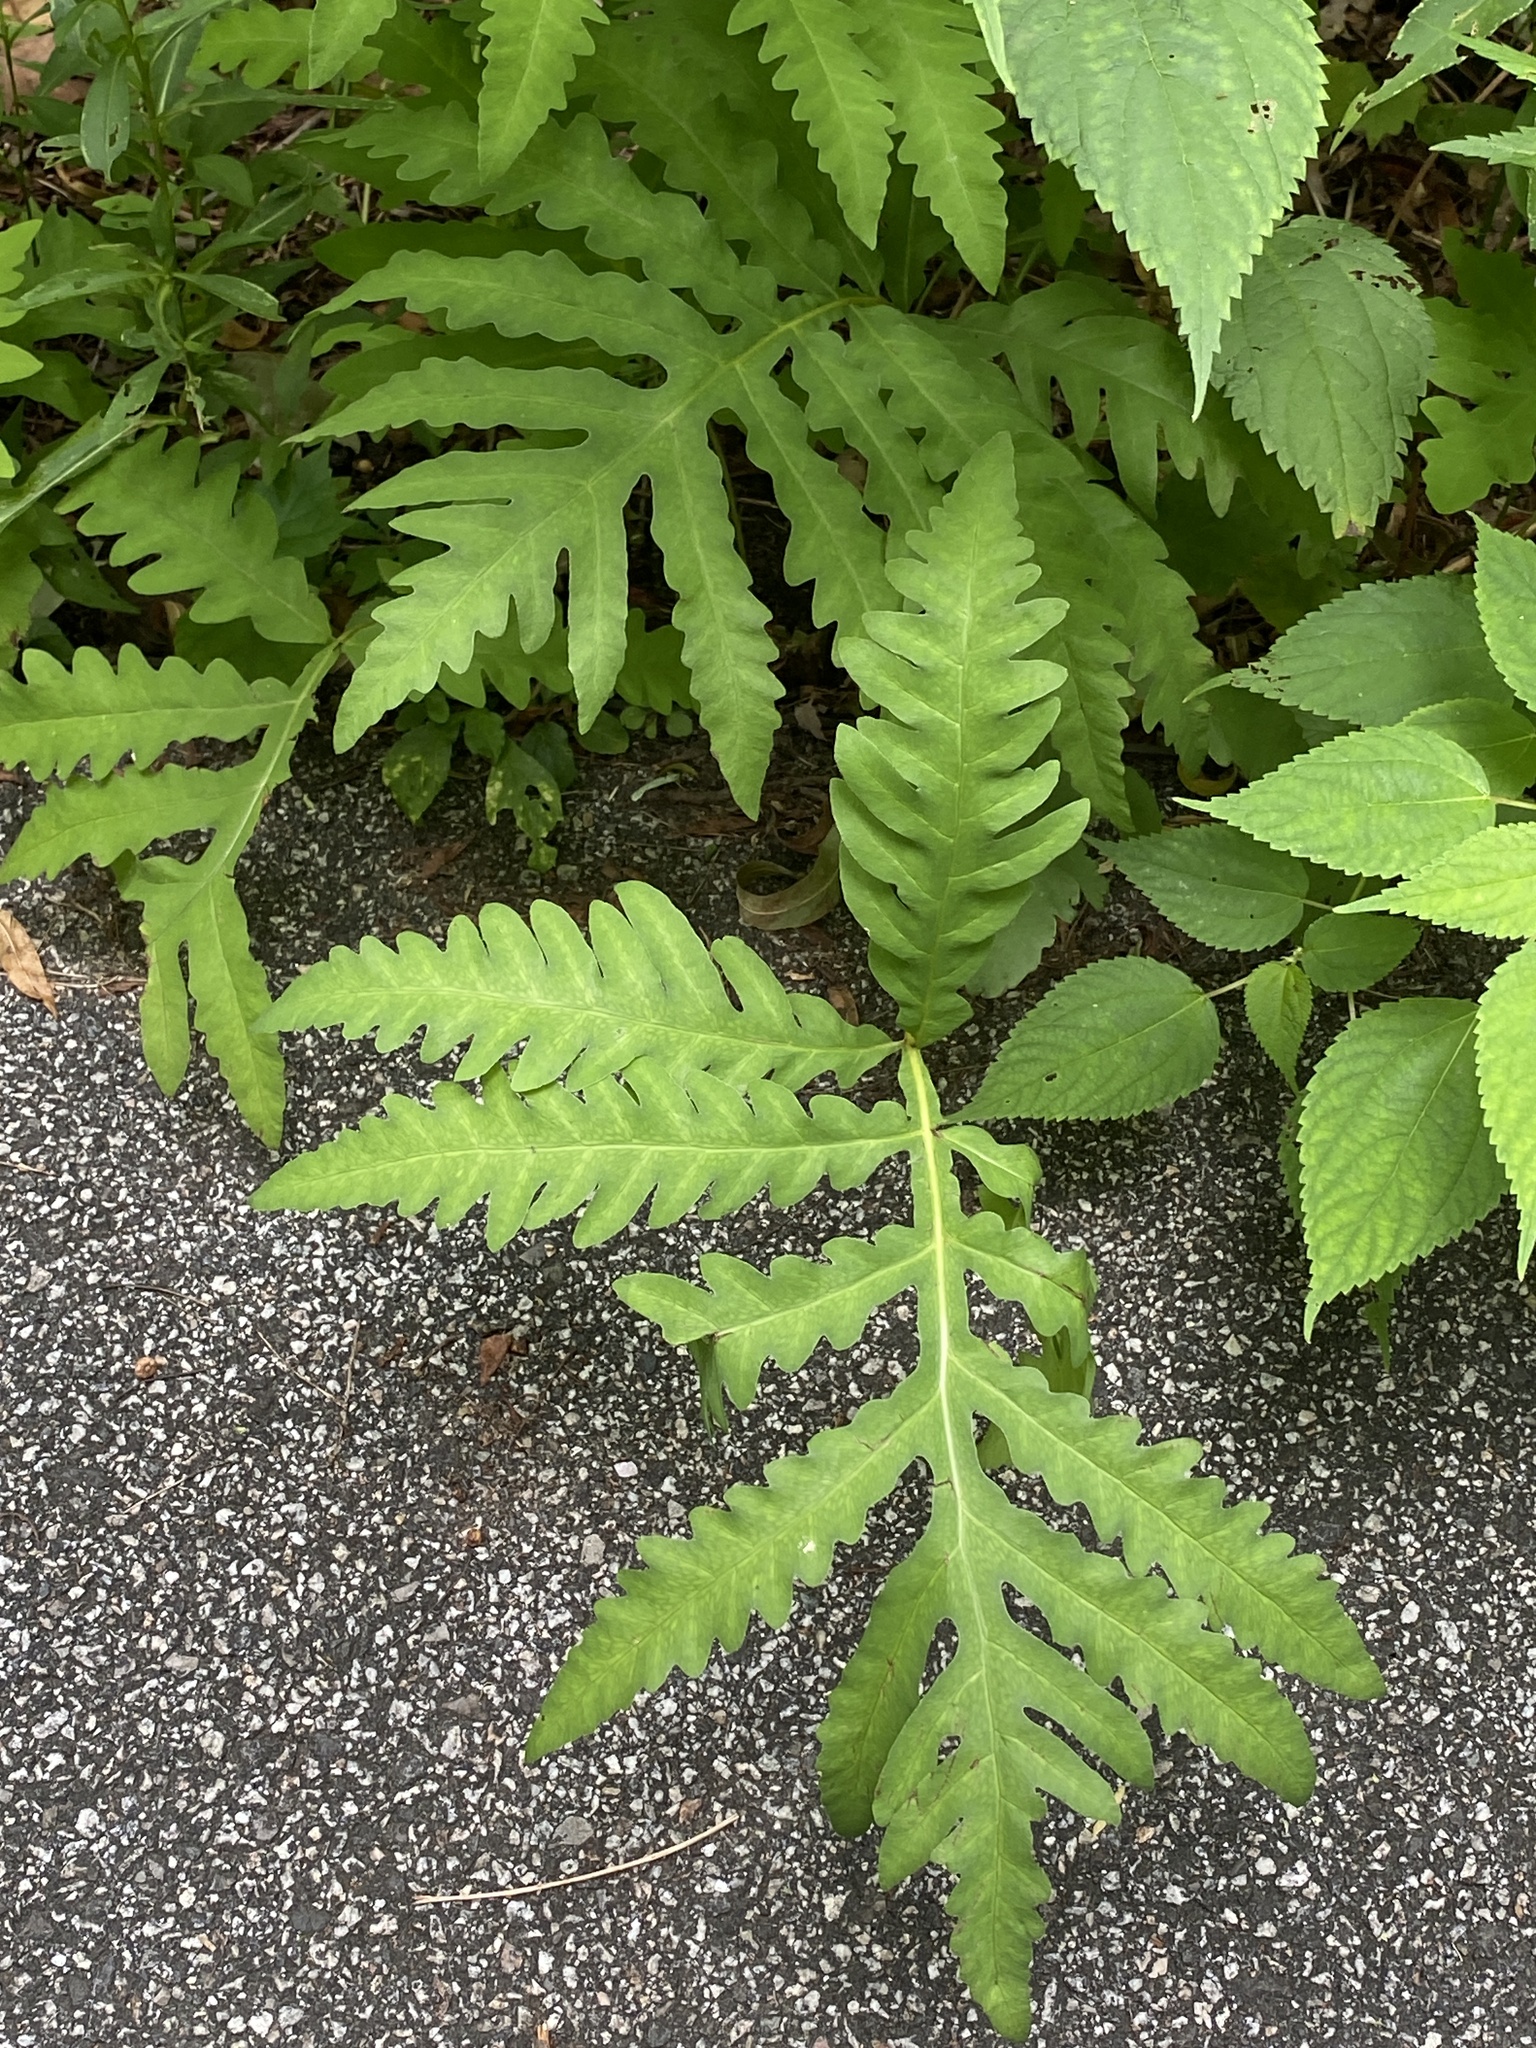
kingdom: Plantae
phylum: Tracheophyta
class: Polypodiopsida
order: Polypodiales
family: Onocleaceae
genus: Onoclea
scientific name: Onoclea sensibilis
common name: Sensitive fern
